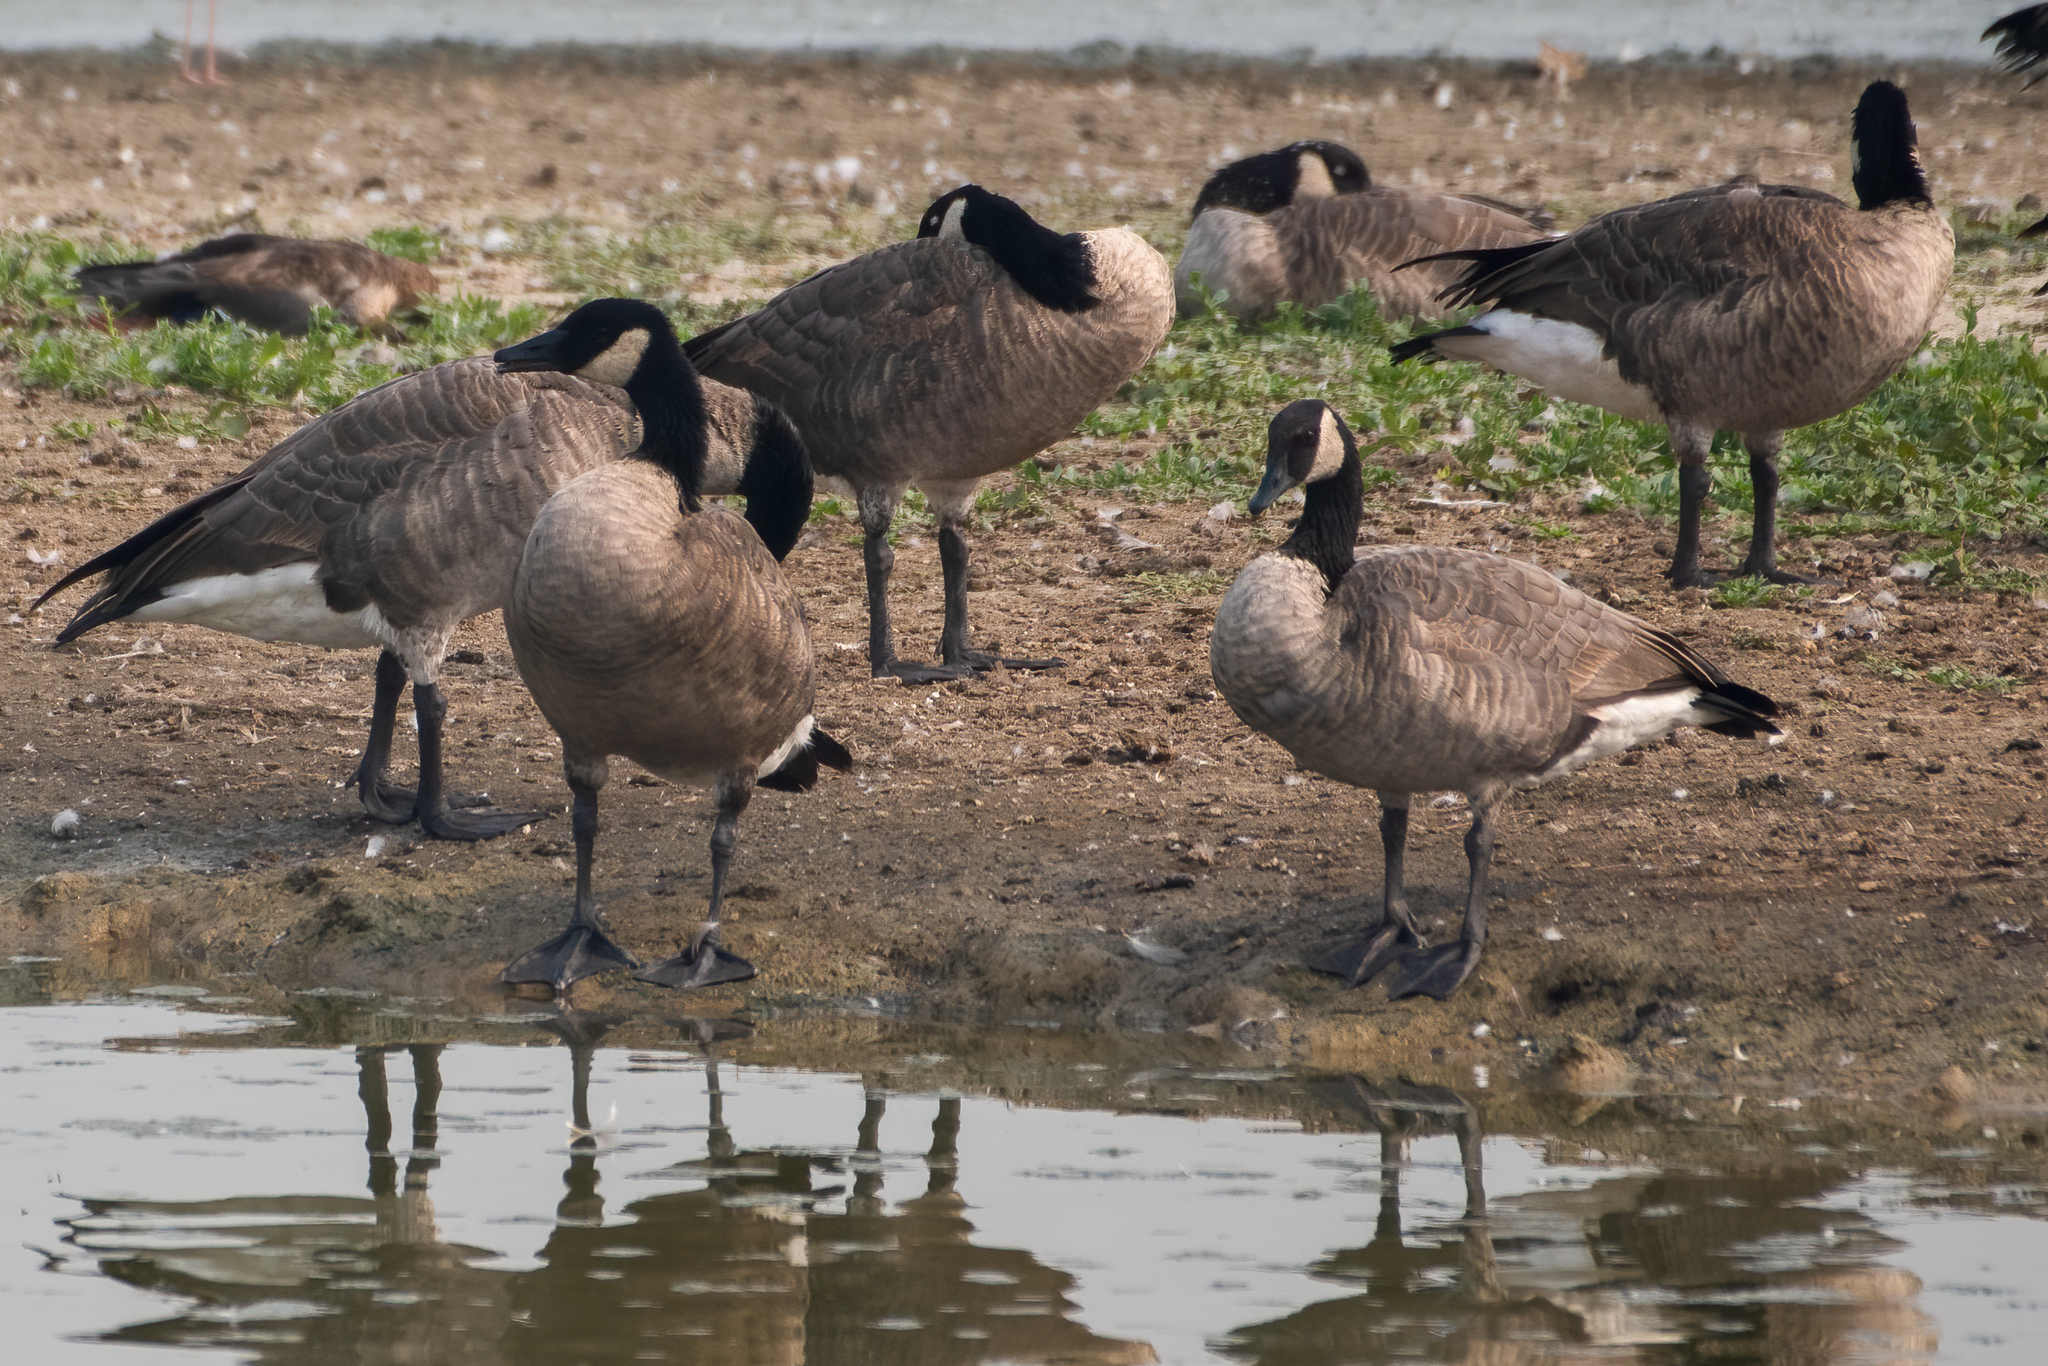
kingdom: Animalia
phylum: Chordata
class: Aves
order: Anseriformes
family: Anatidae
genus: Branta
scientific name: Branta canadensis
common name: Canada goose
